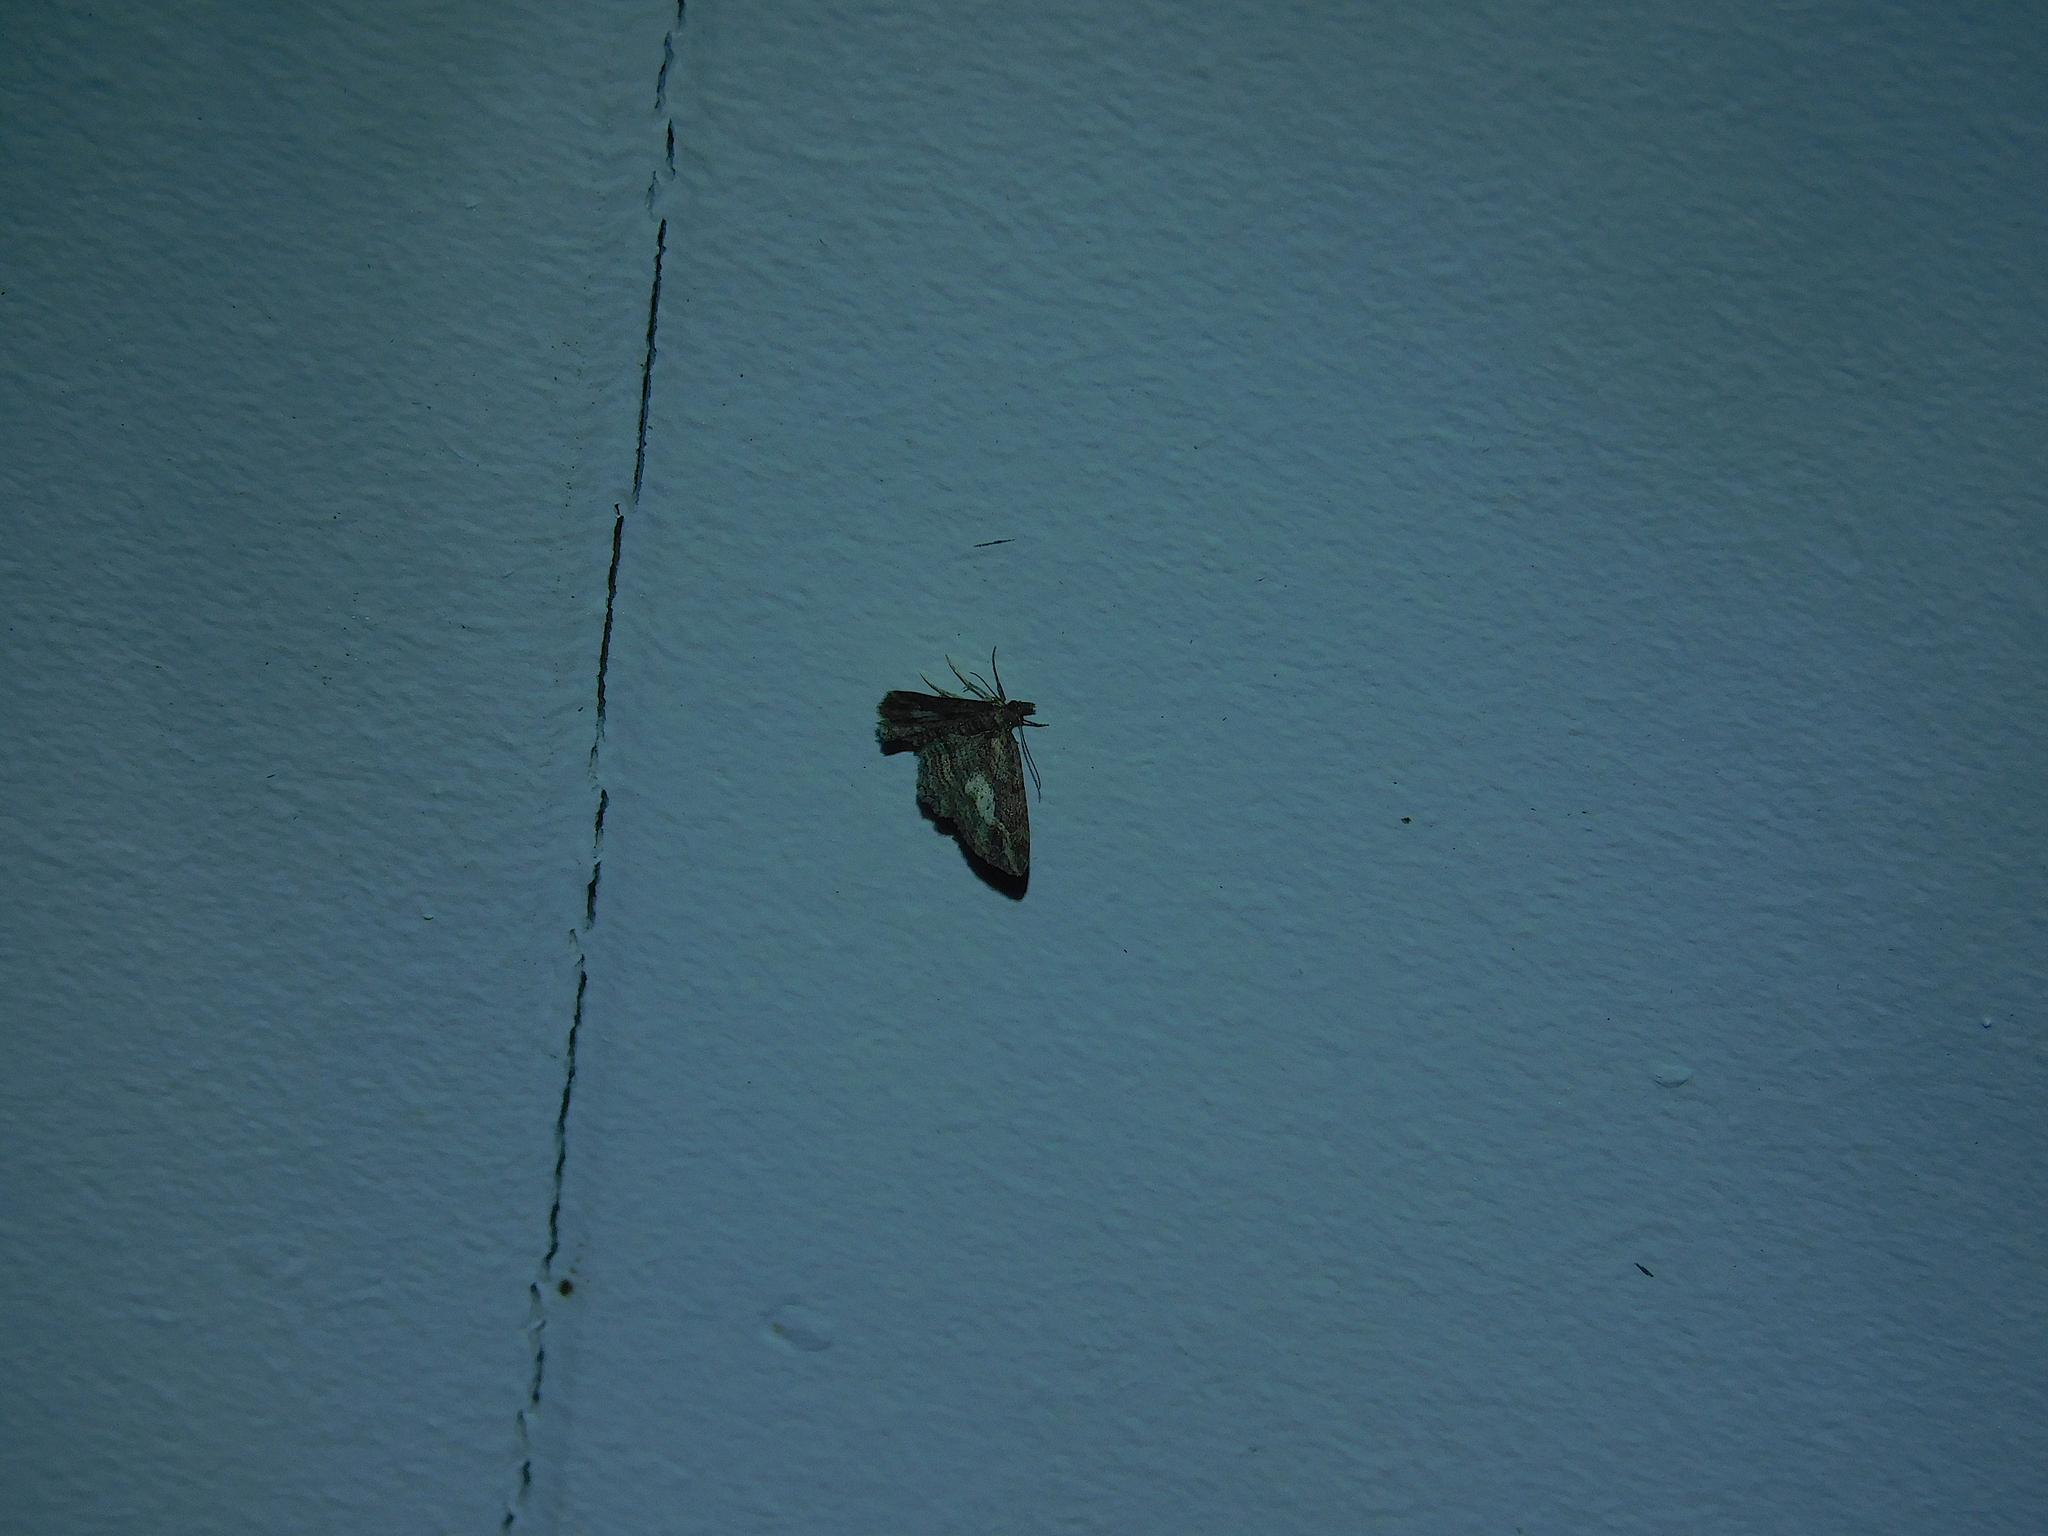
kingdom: Animalia
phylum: Arthropoda
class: Insecta
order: Lepidoptera
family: Geometridae
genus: Chloroclystis
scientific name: Chloroclystis filata
